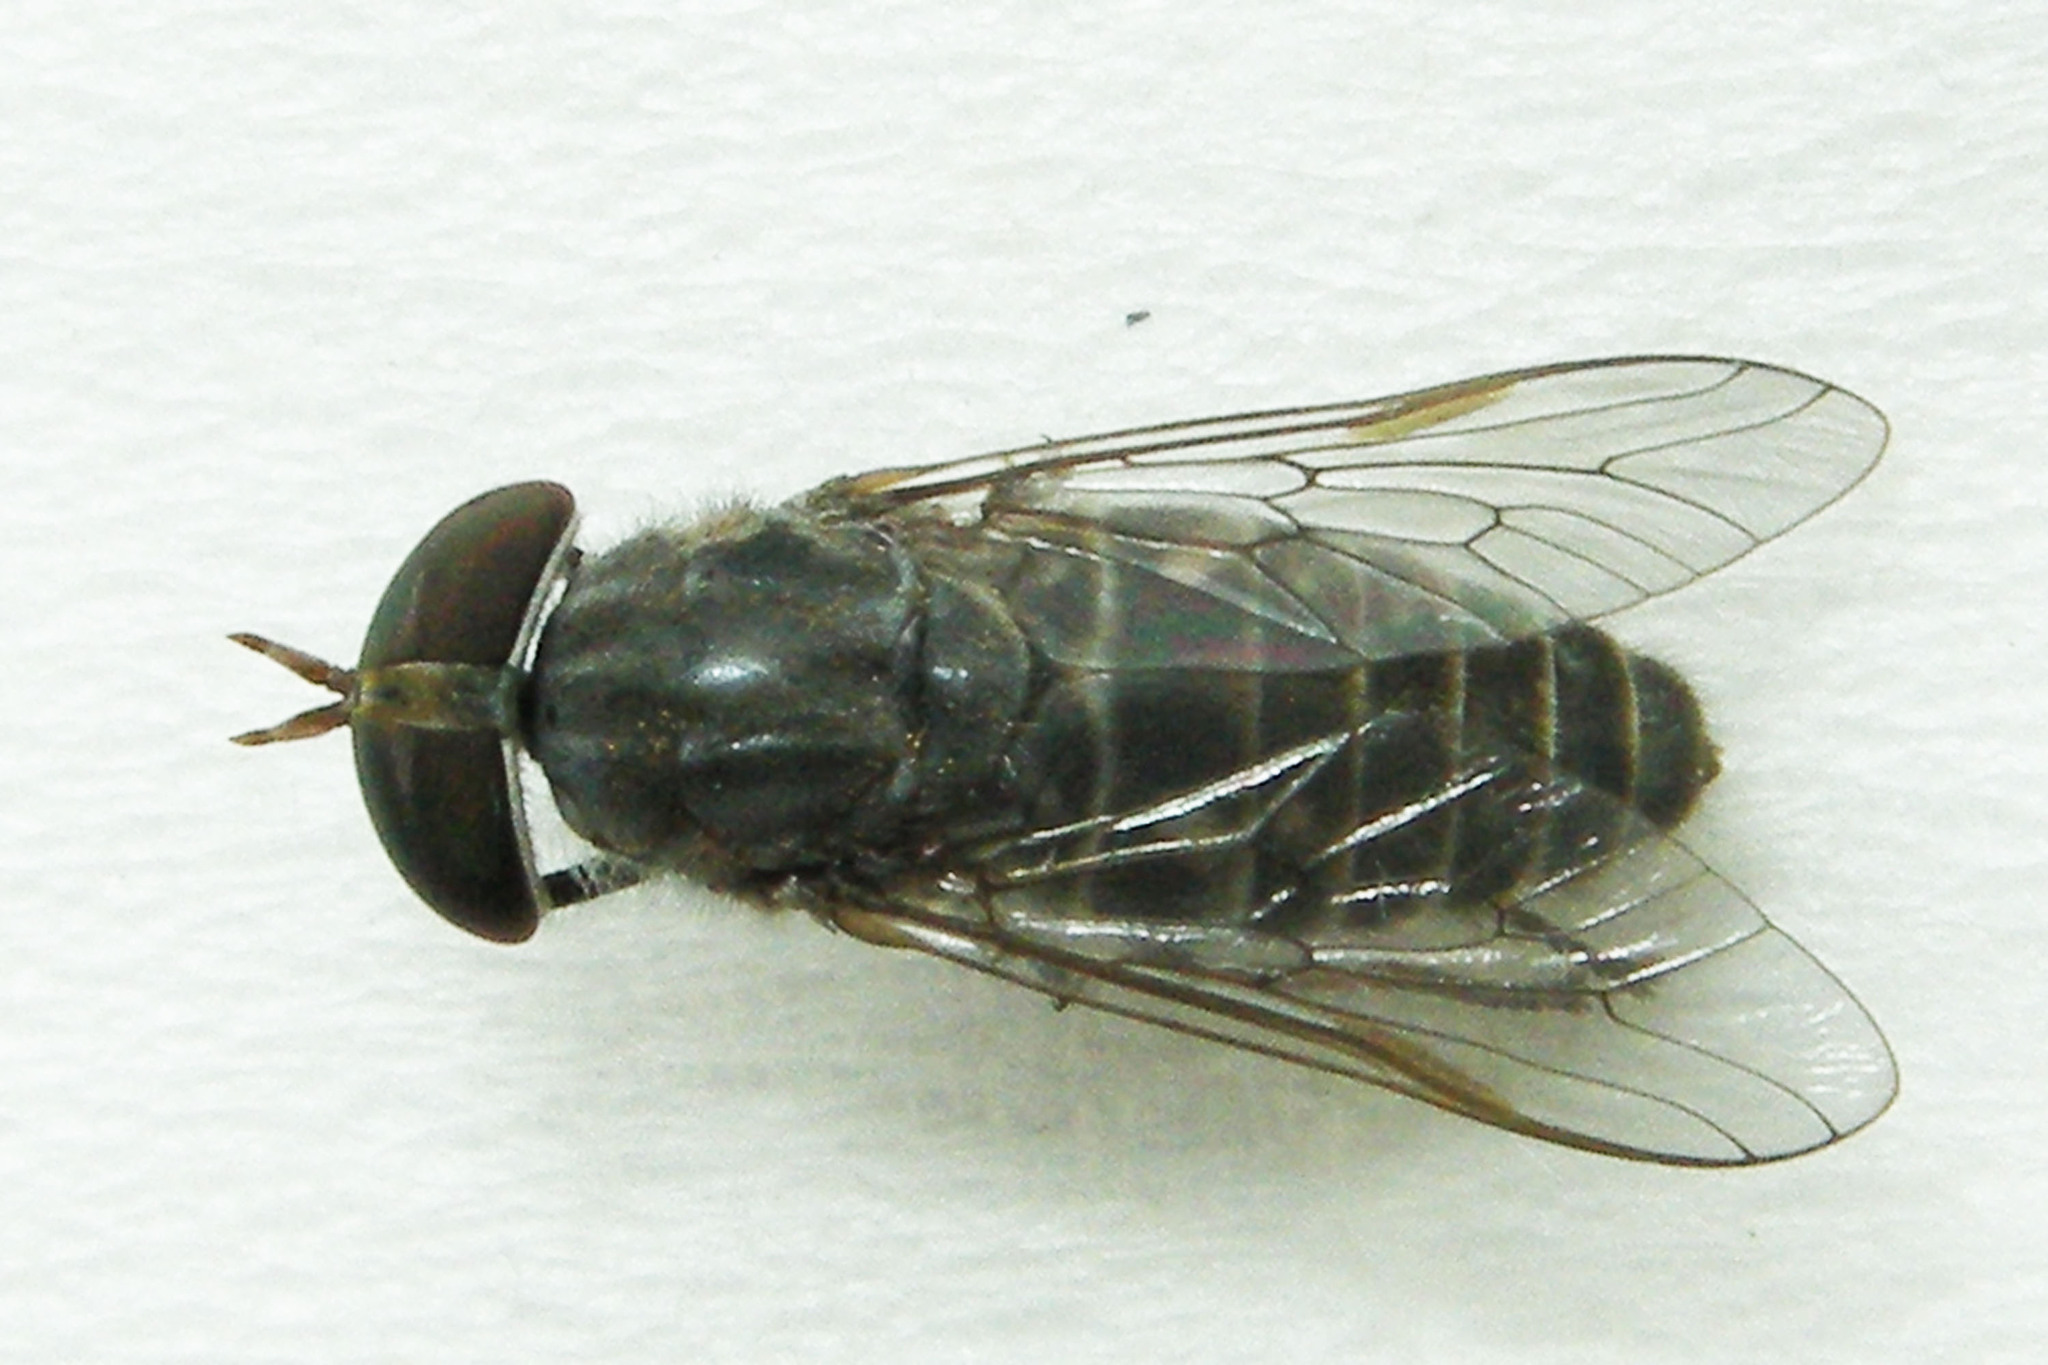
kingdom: Animalia
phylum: Arthropoda
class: Insecta
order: Diptera
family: Tabanidae
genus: Tabanus
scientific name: Tabanus sparus
